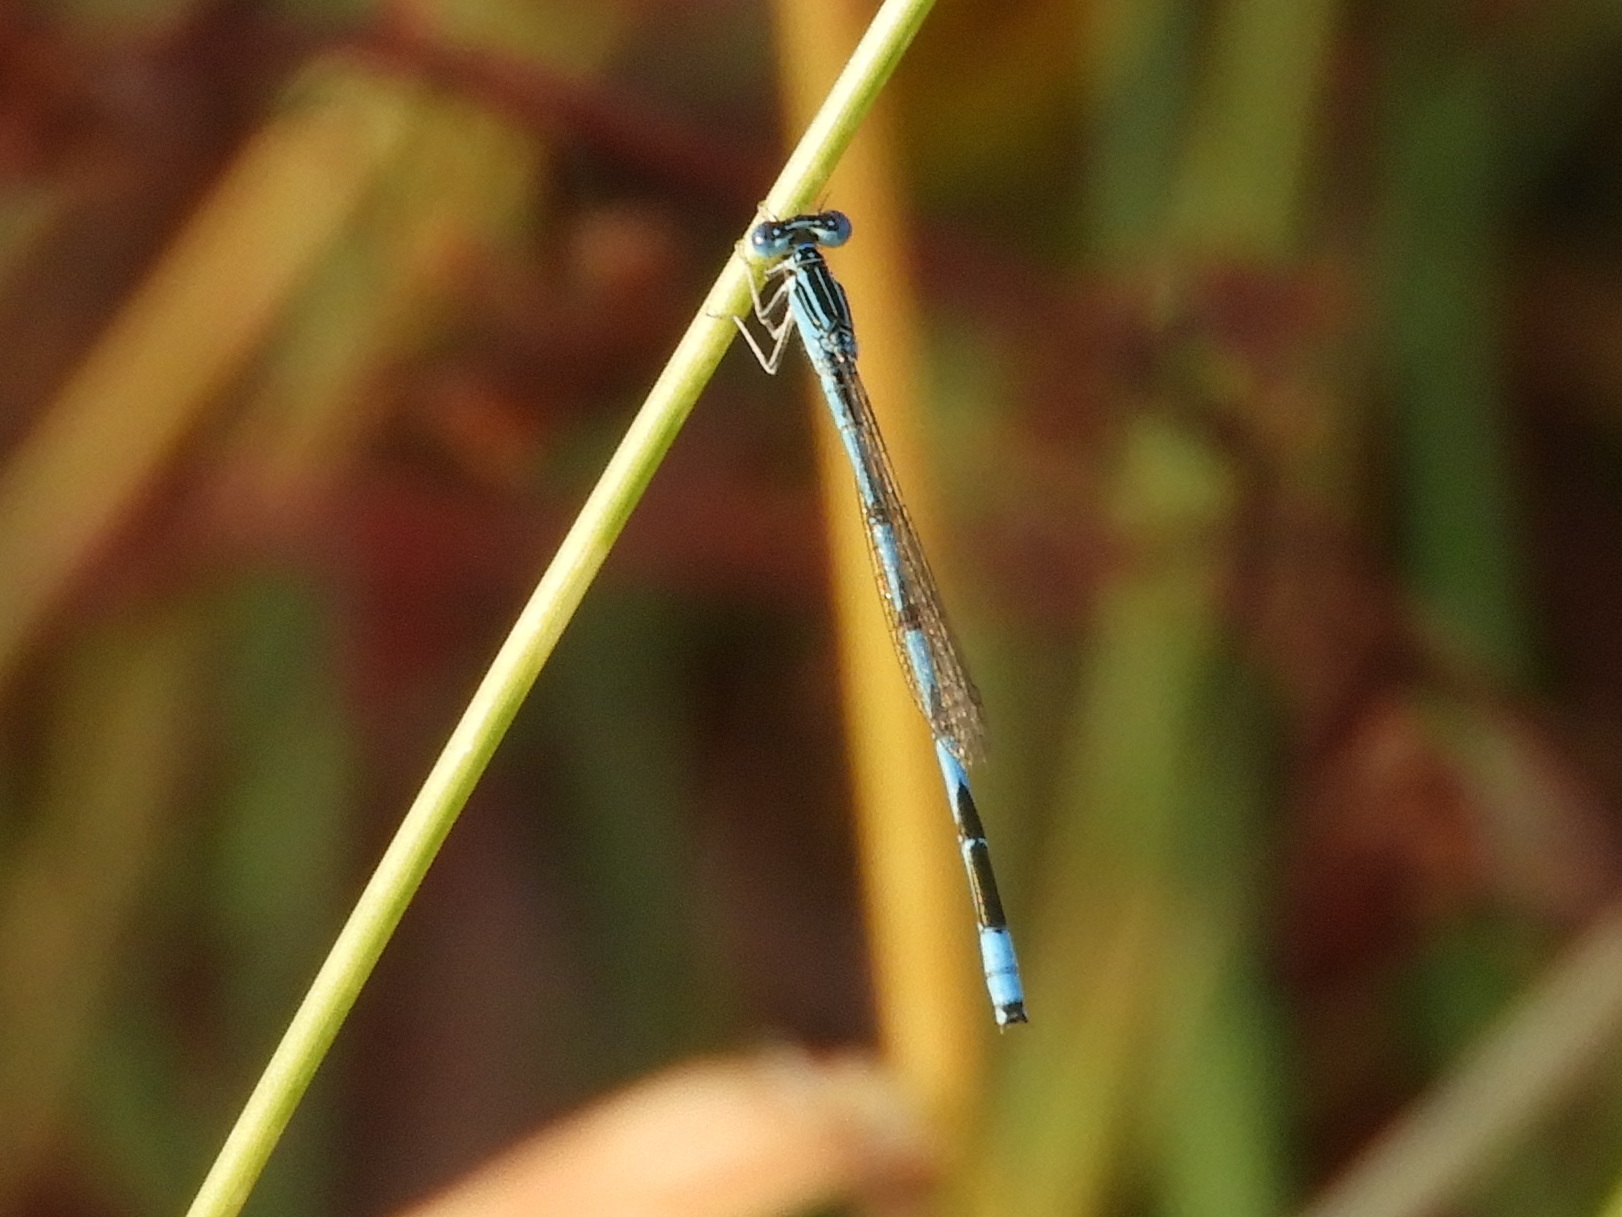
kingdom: Animalia
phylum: Arthropoda
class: Insecta
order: Odonata
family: Coenagrionidae
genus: Enallagma
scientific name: Enallagma basidens
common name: Double-striped bluet
